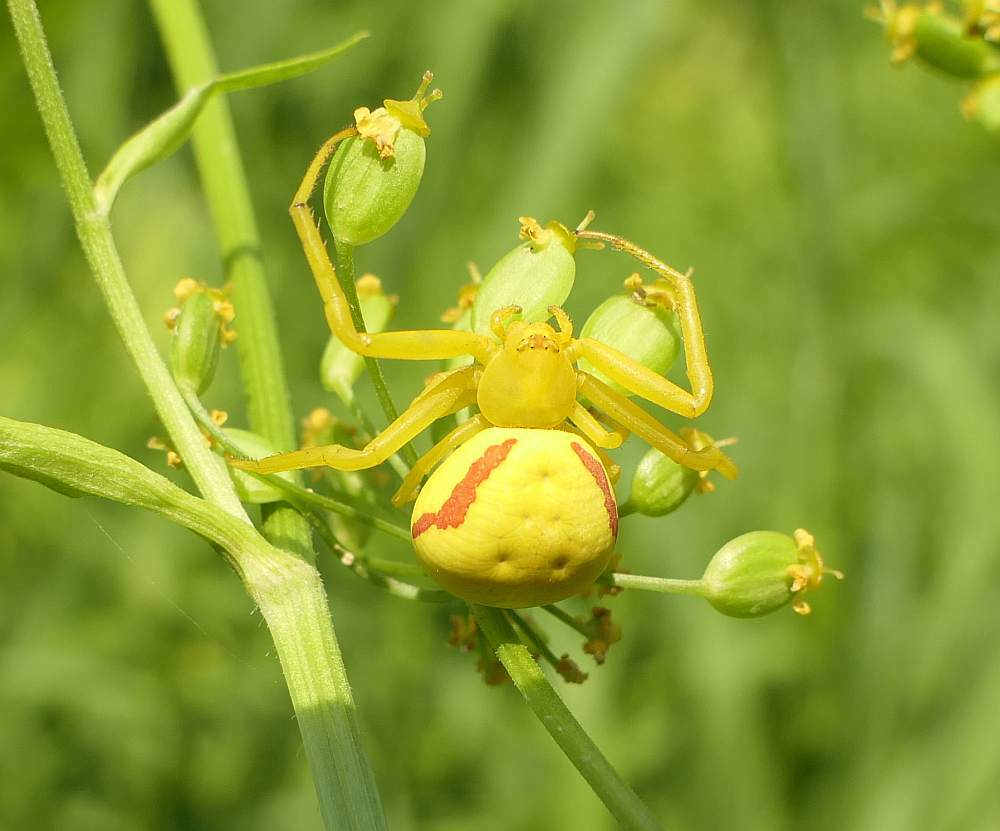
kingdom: Animalia
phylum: Arthropoda
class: Arachnida
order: Araneae
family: Thomisidae
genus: Misumena
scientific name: Misumena vatia
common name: Goldenrod crab spider
